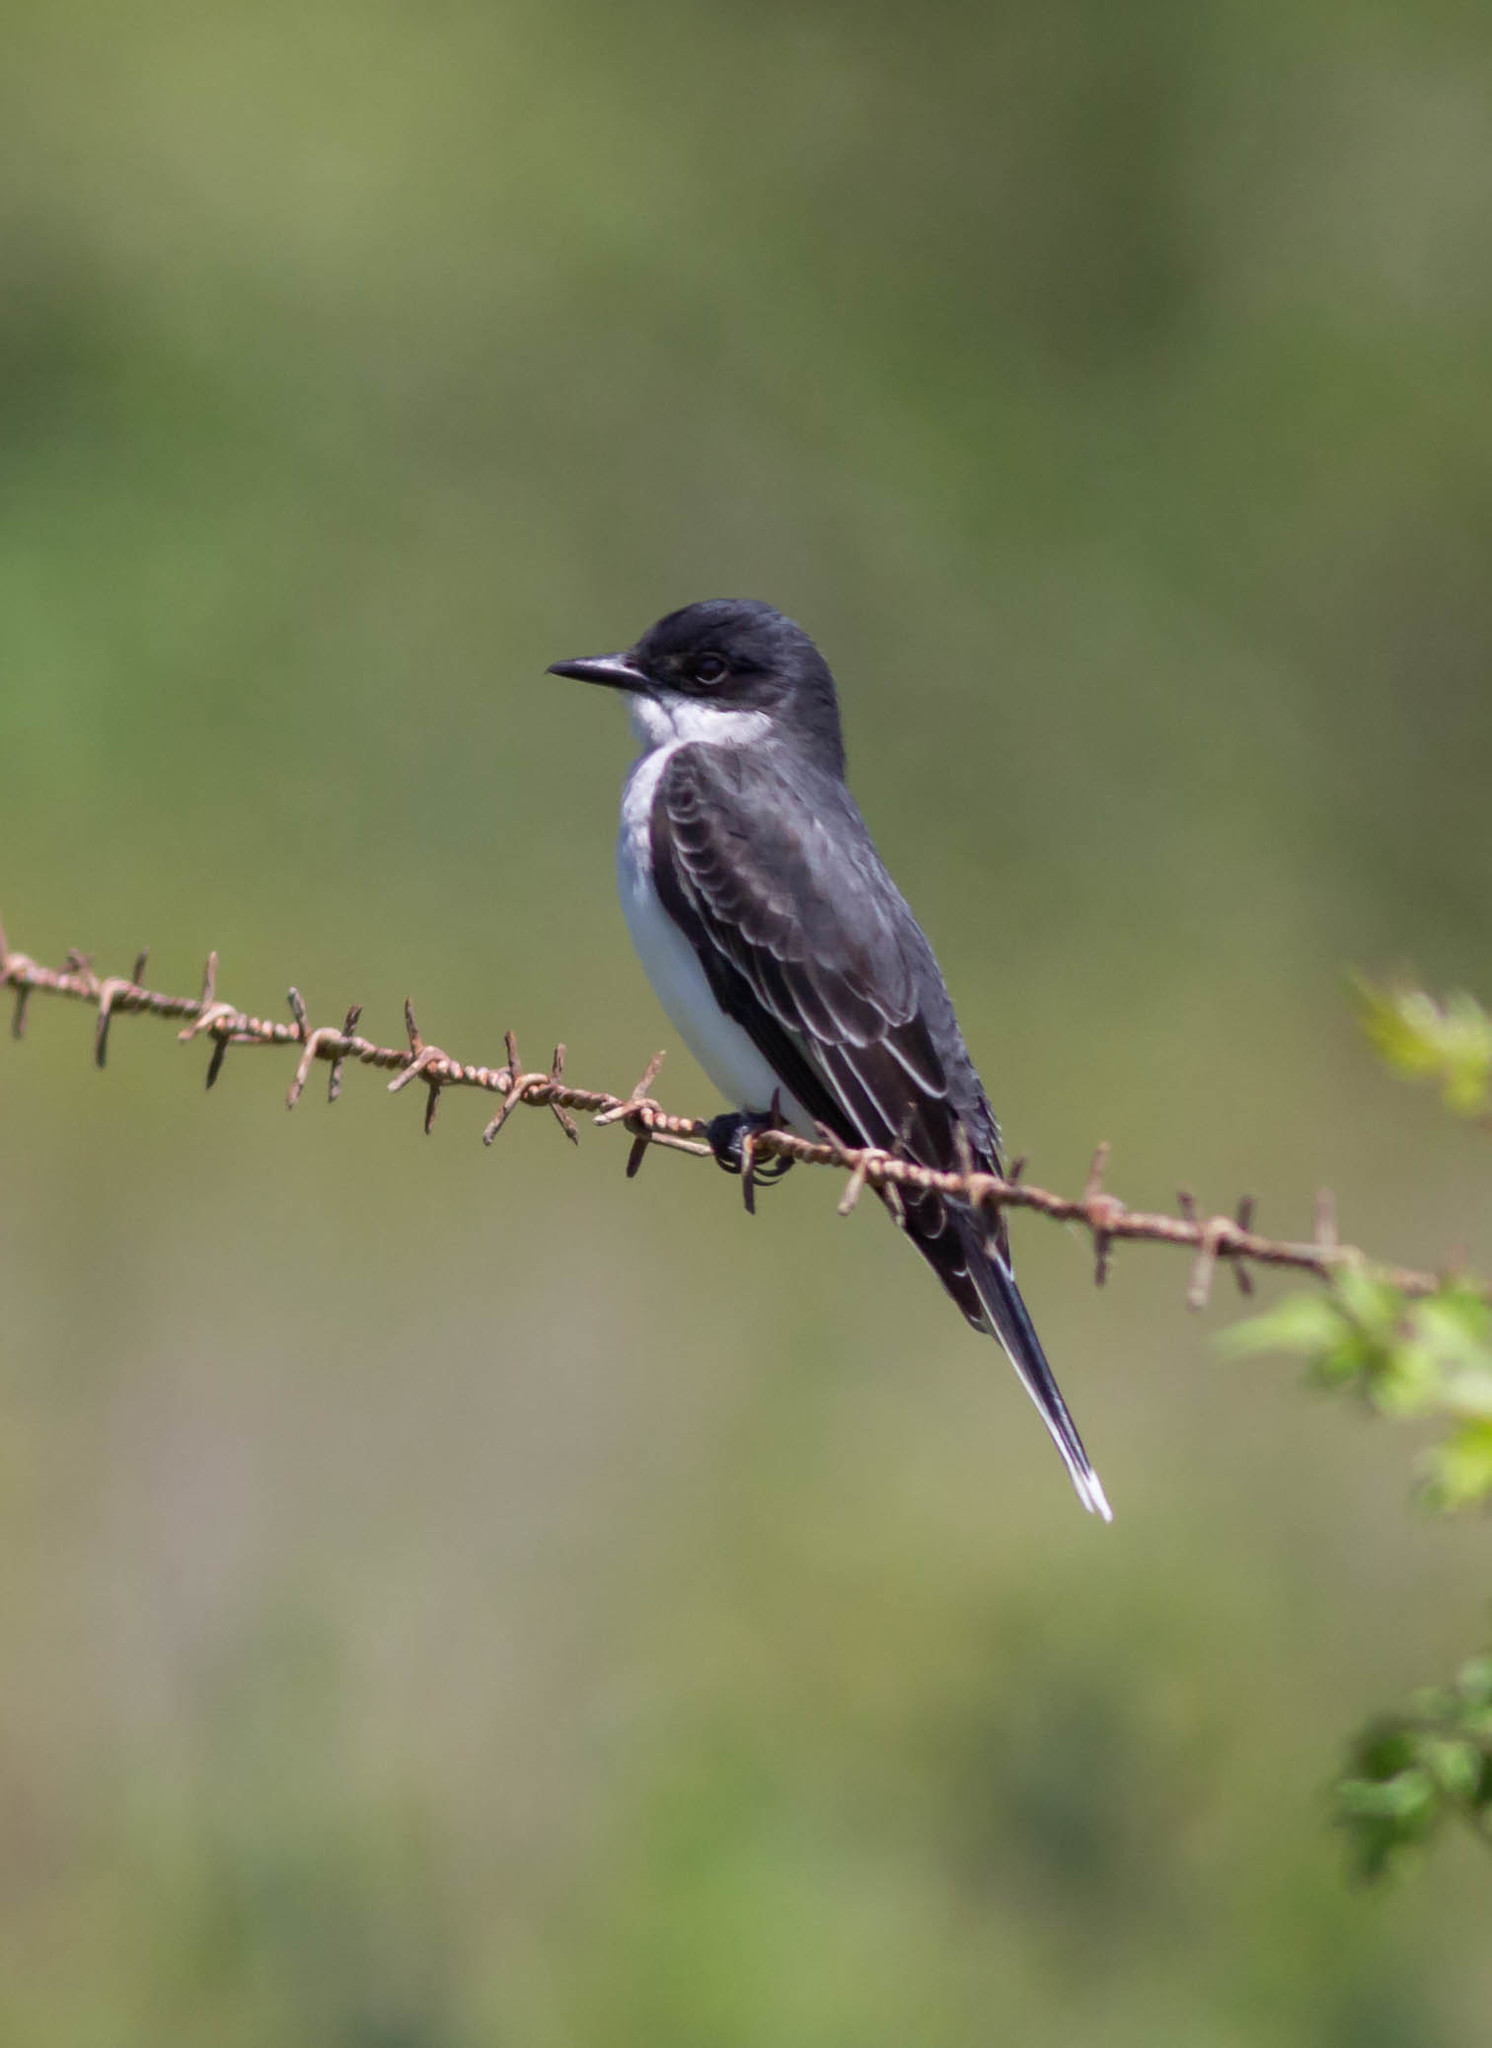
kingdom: Animalia
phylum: Chordata
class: Aves
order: Passeriformes
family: Tyrannidae
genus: Tyrannus
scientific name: Tyrannus tyrannus
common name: Eastern kingbird
